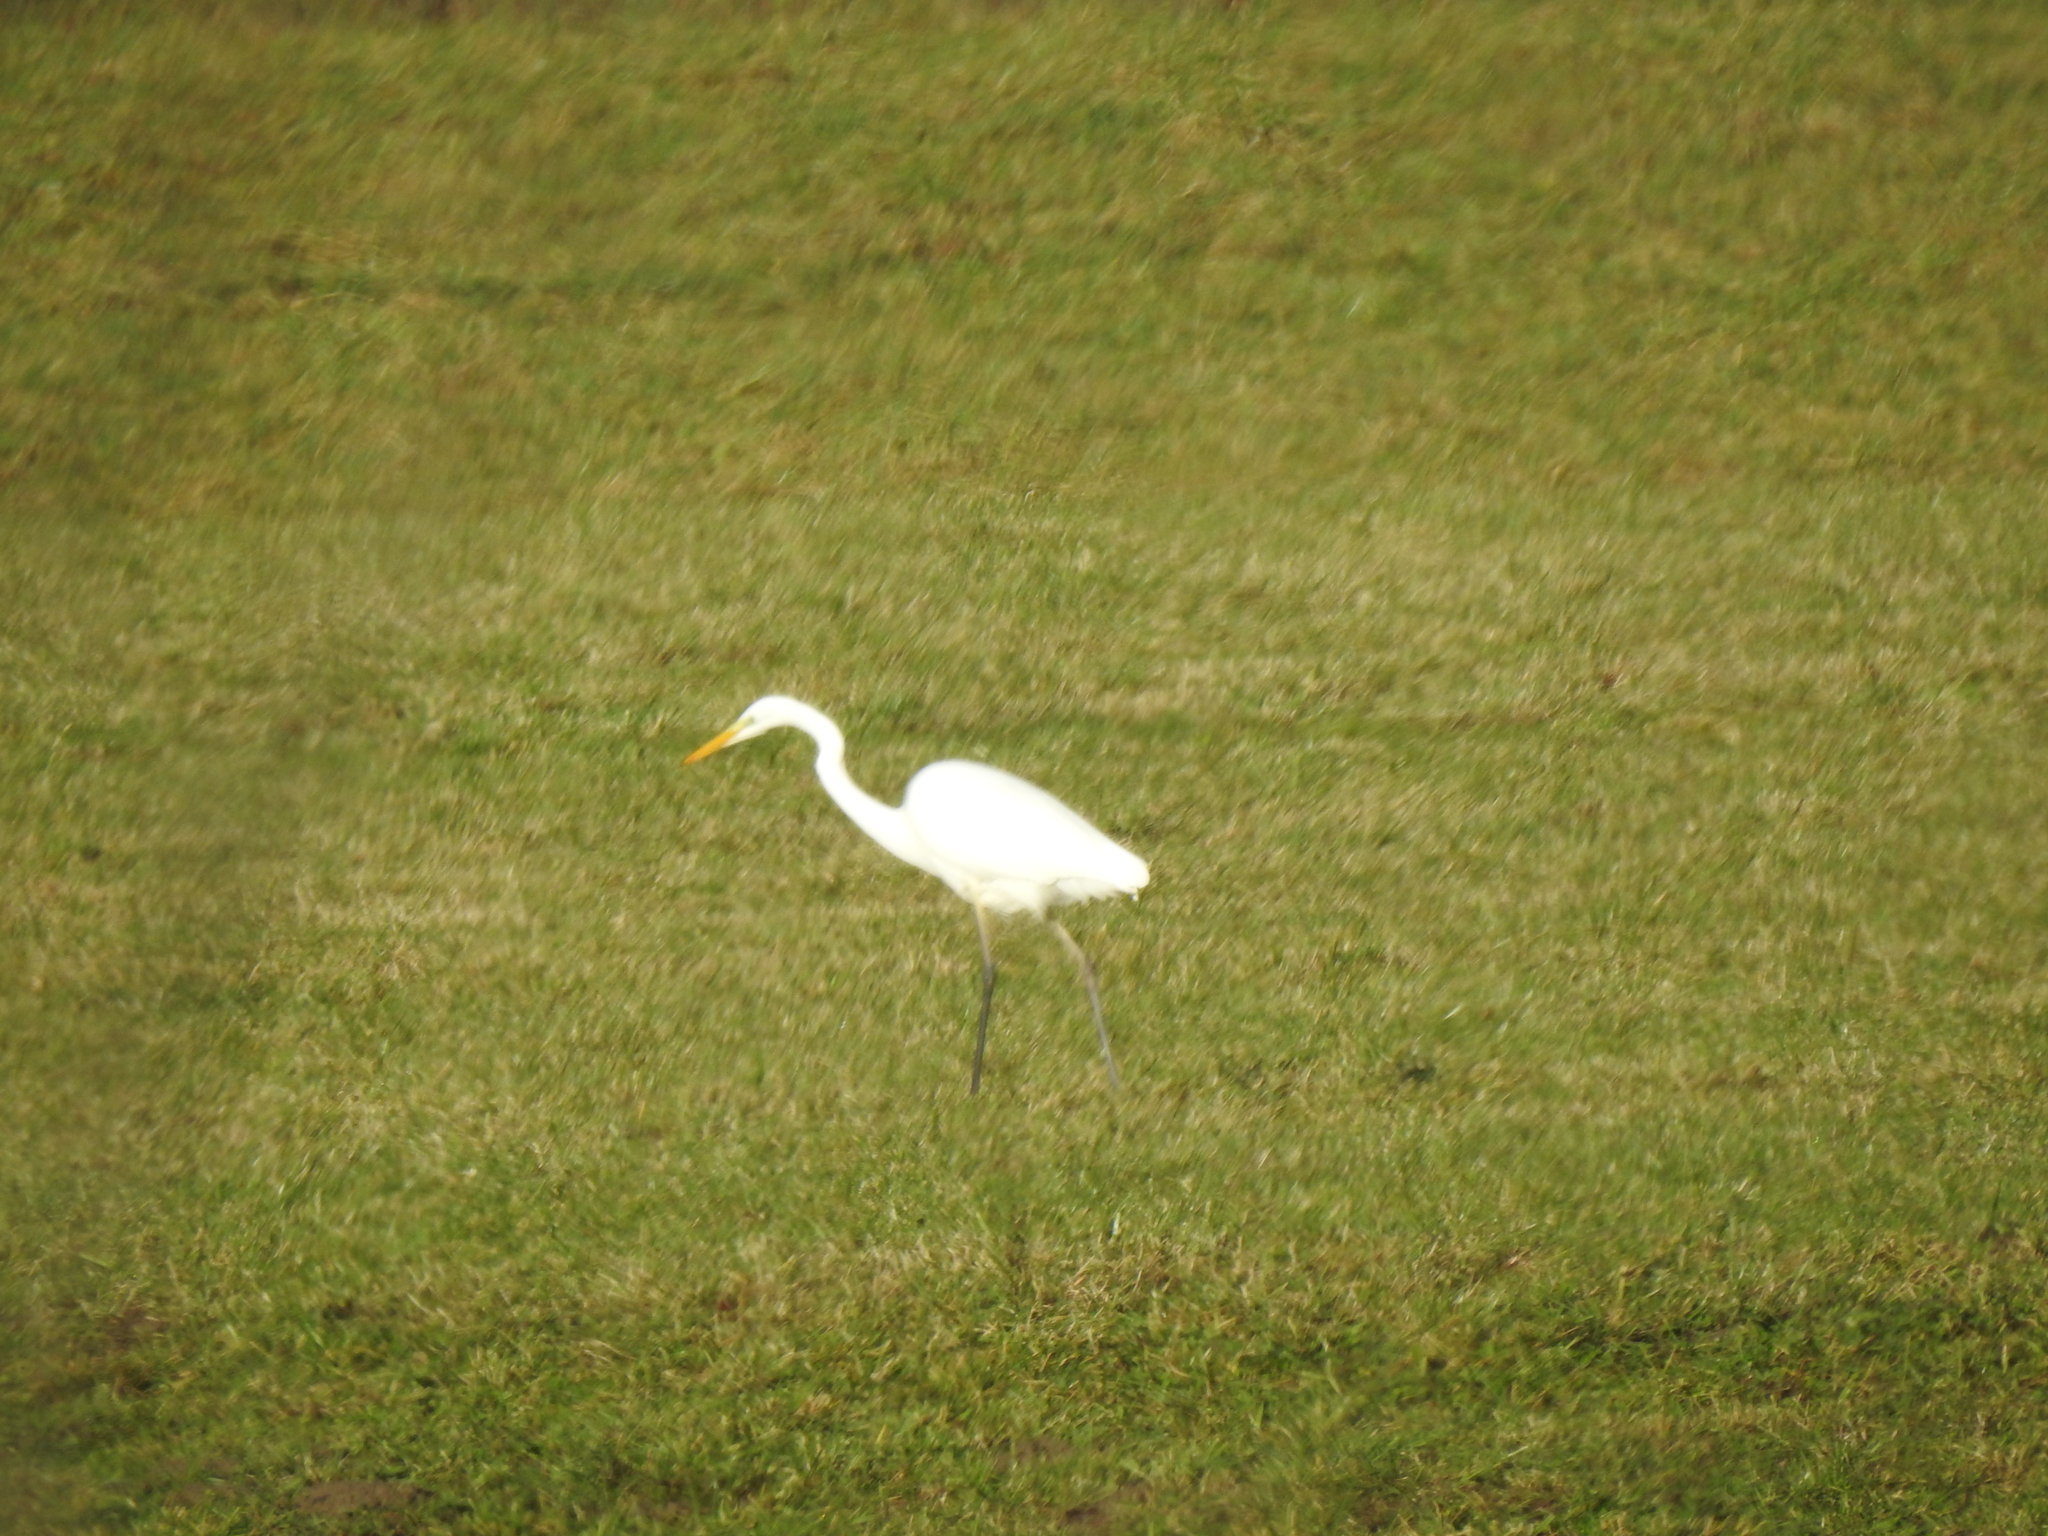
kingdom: Animalia
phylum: Chordata
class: Aves
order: Pelecaniformes
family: Ardeidae
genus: Ardea
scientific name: Ardea alba
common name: Great egret
